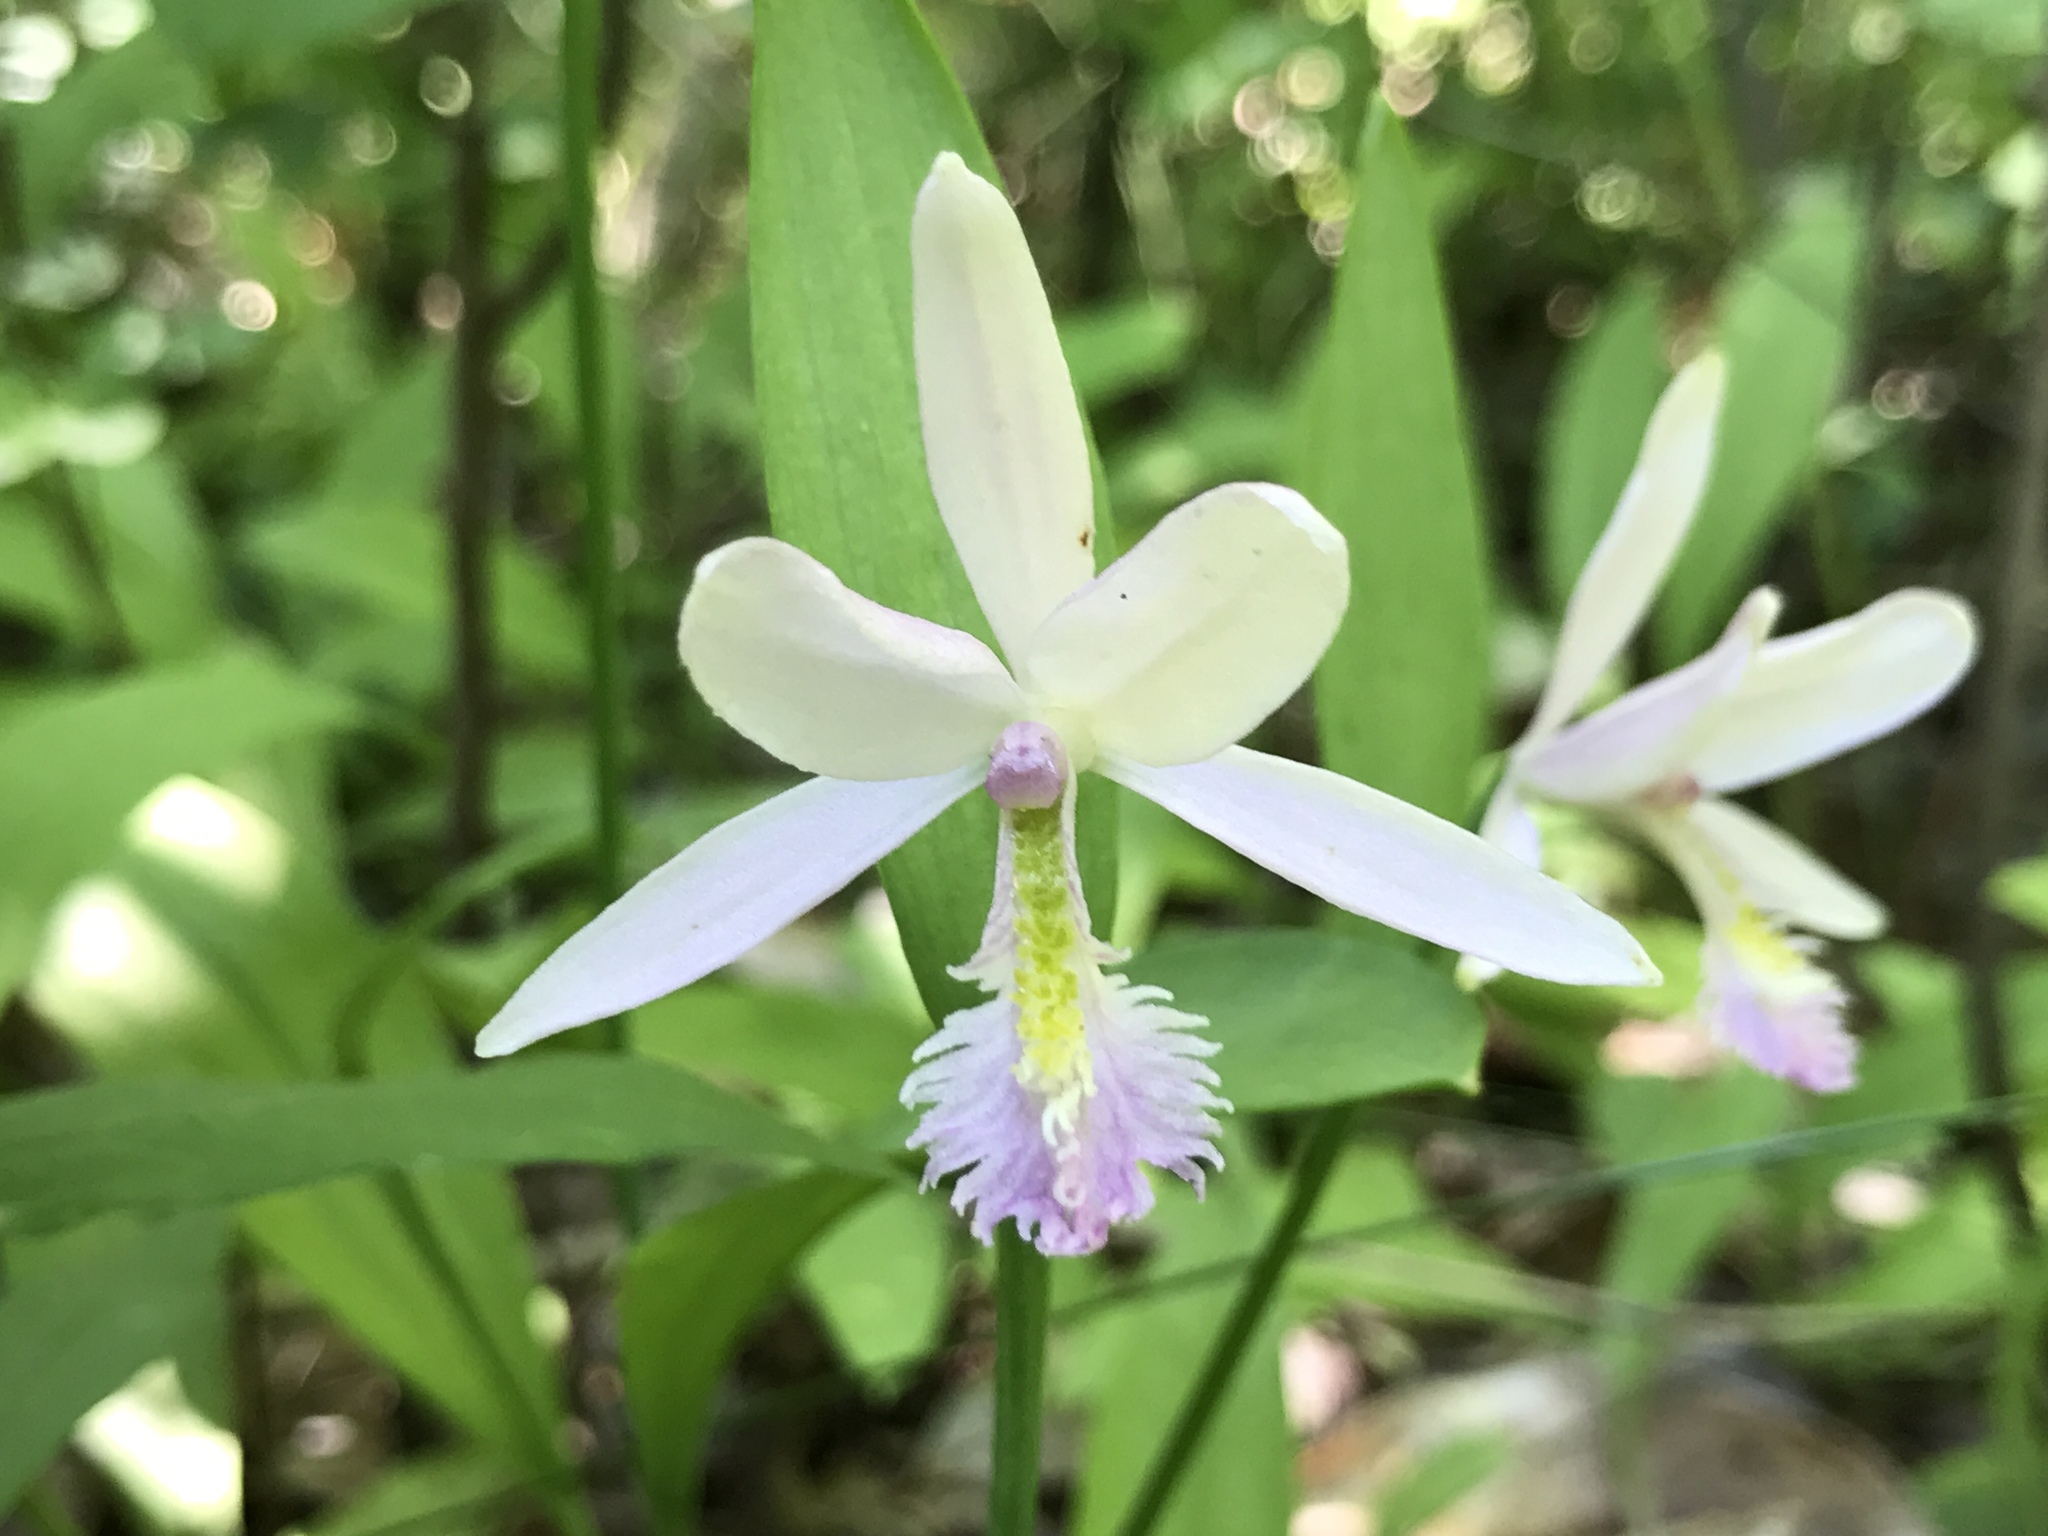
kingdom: Plantae
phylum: Tracheophyta
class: Liliopsida
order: Asparagales
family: Orchidaceae
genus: Pogonia
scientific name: Pogonia ophioglossoides
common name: Rose pogonia
